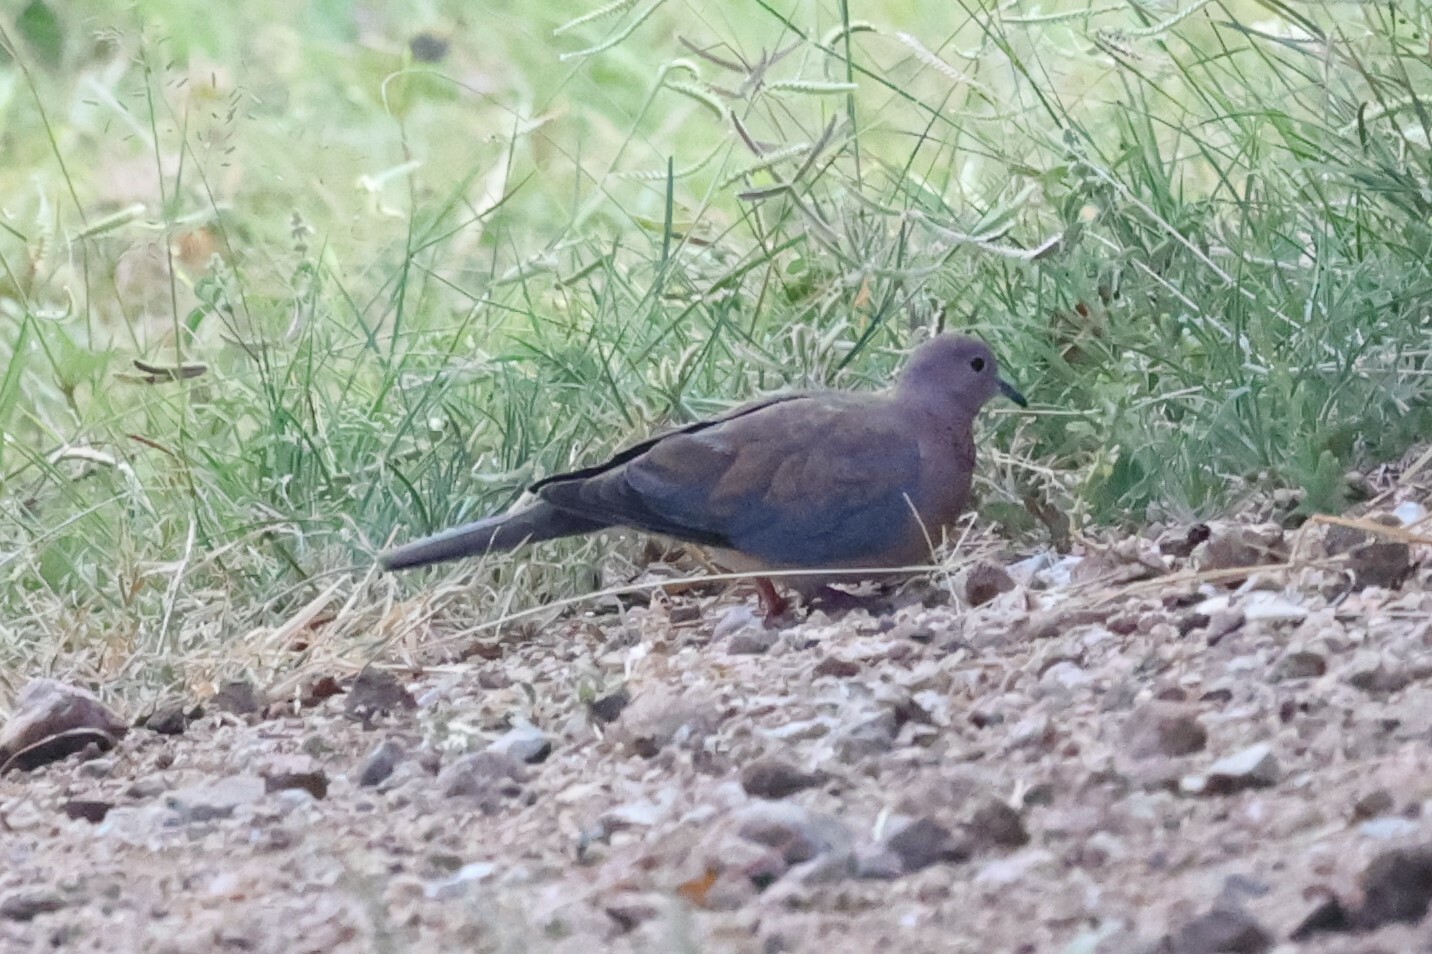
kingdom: Animalia
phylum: Chordata
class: Aves
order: Columbiformes
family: Columbidae
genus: Spilopelia
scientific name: Spilopelia senegalensis
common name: Laughing dove
